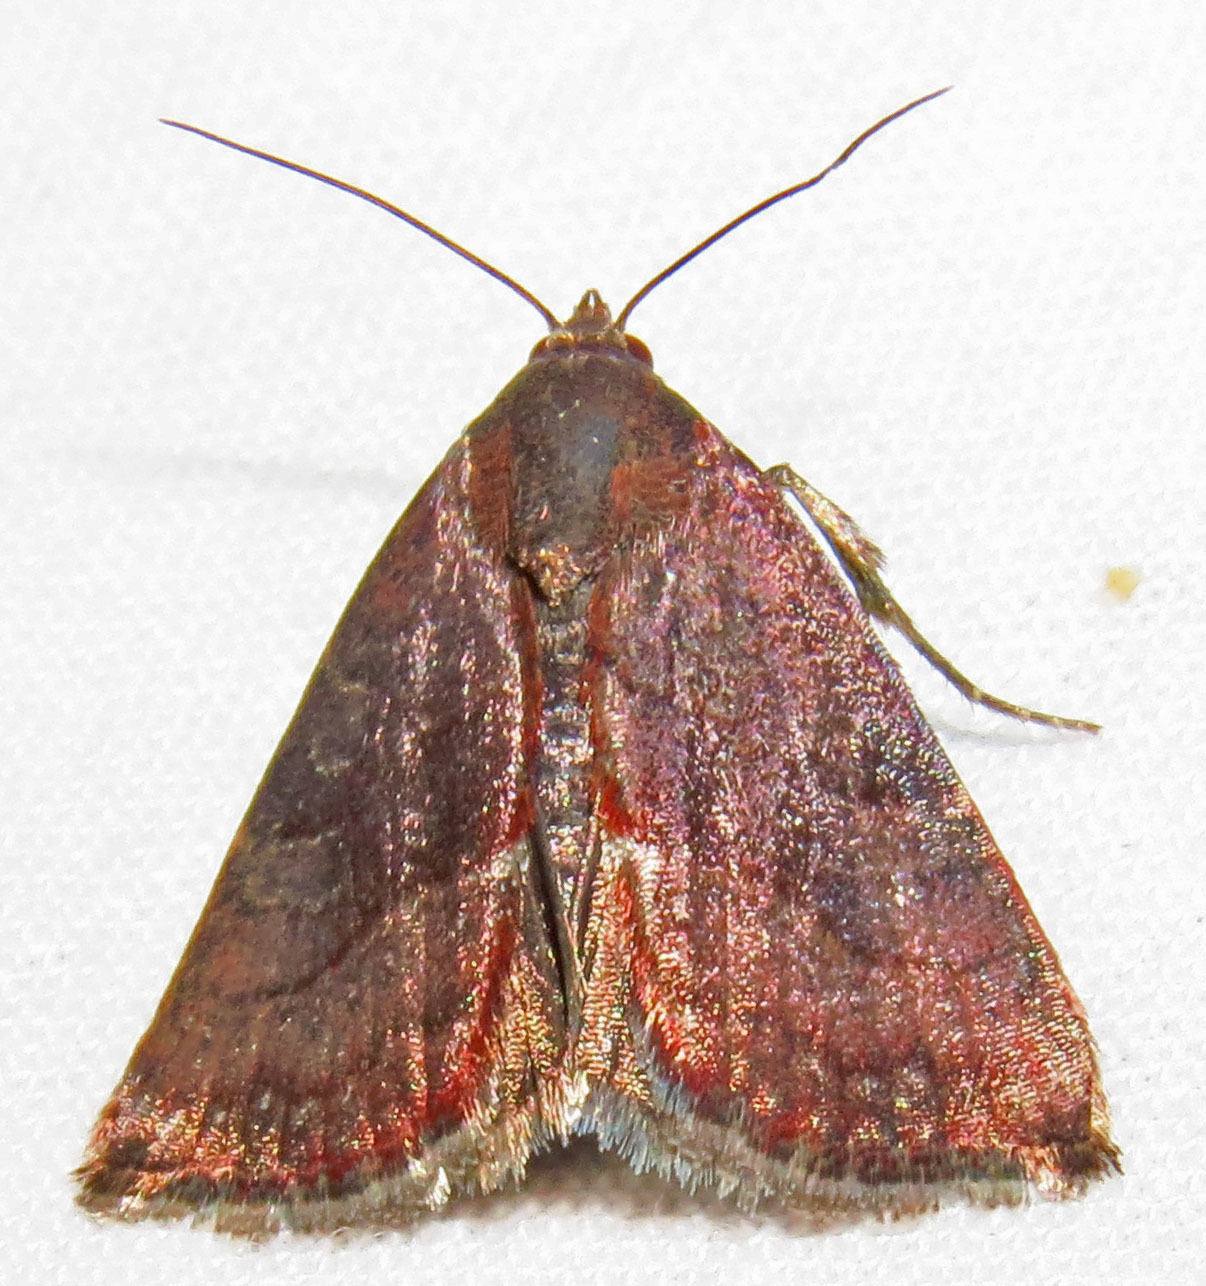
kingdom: Animalia
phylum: Arthropoda
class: Insecta
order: Lepidoptera
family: Noctuidae
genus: Galgula
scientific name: Galgula partita
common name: Wedgeling
